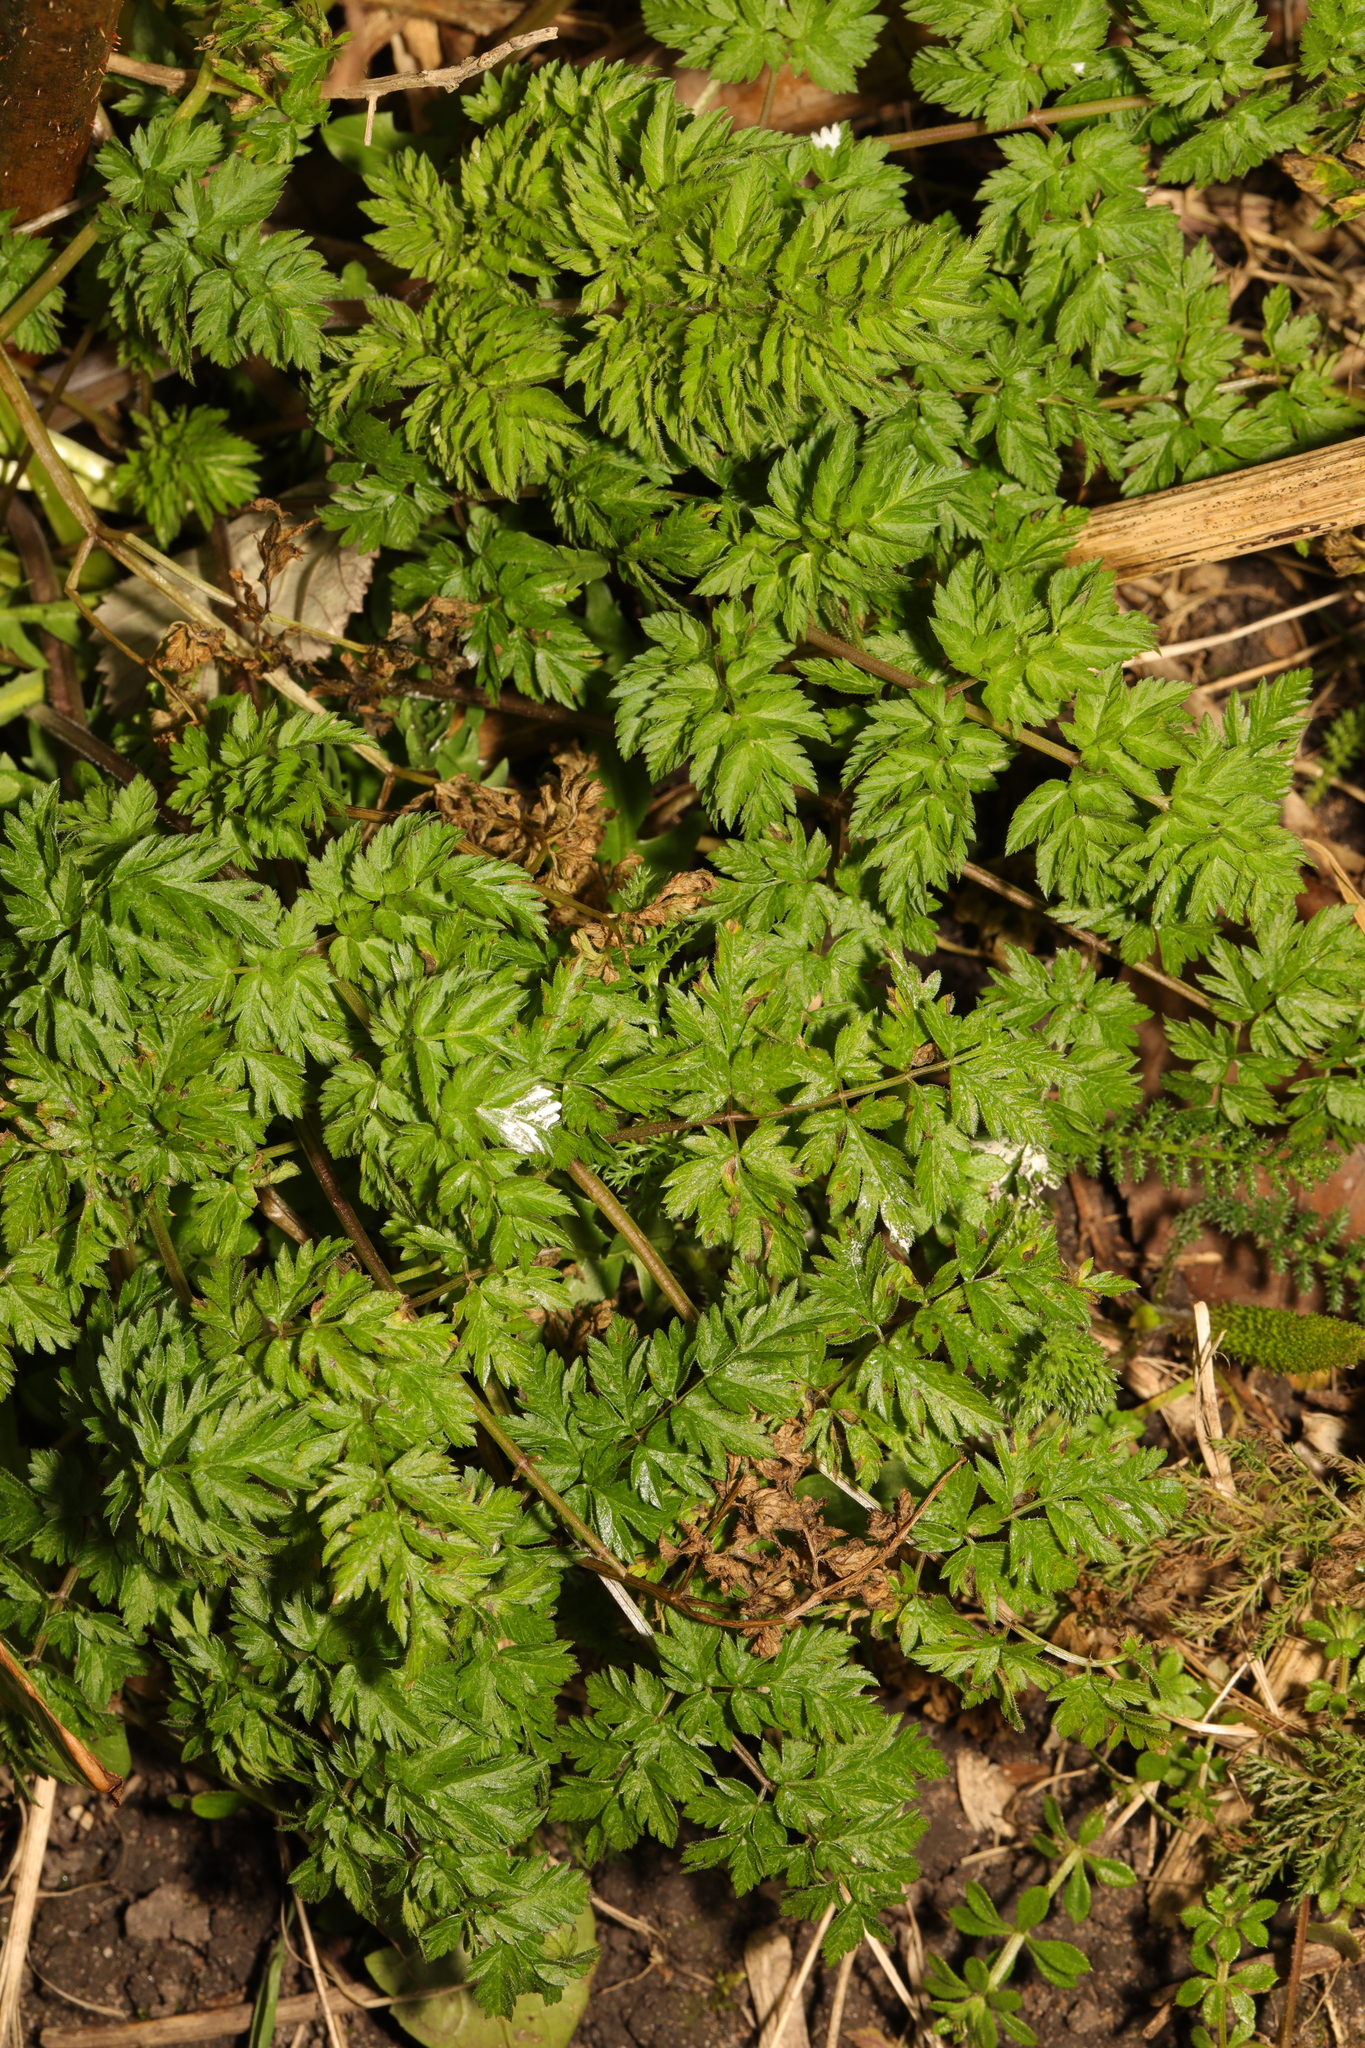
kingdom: Plantae
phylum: Tracheophyta
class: Magnoliopsida
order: Apiales
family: Apiaceae
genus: Anthriscus
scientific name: Anthriscus sylvestris
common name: Cow parsley
